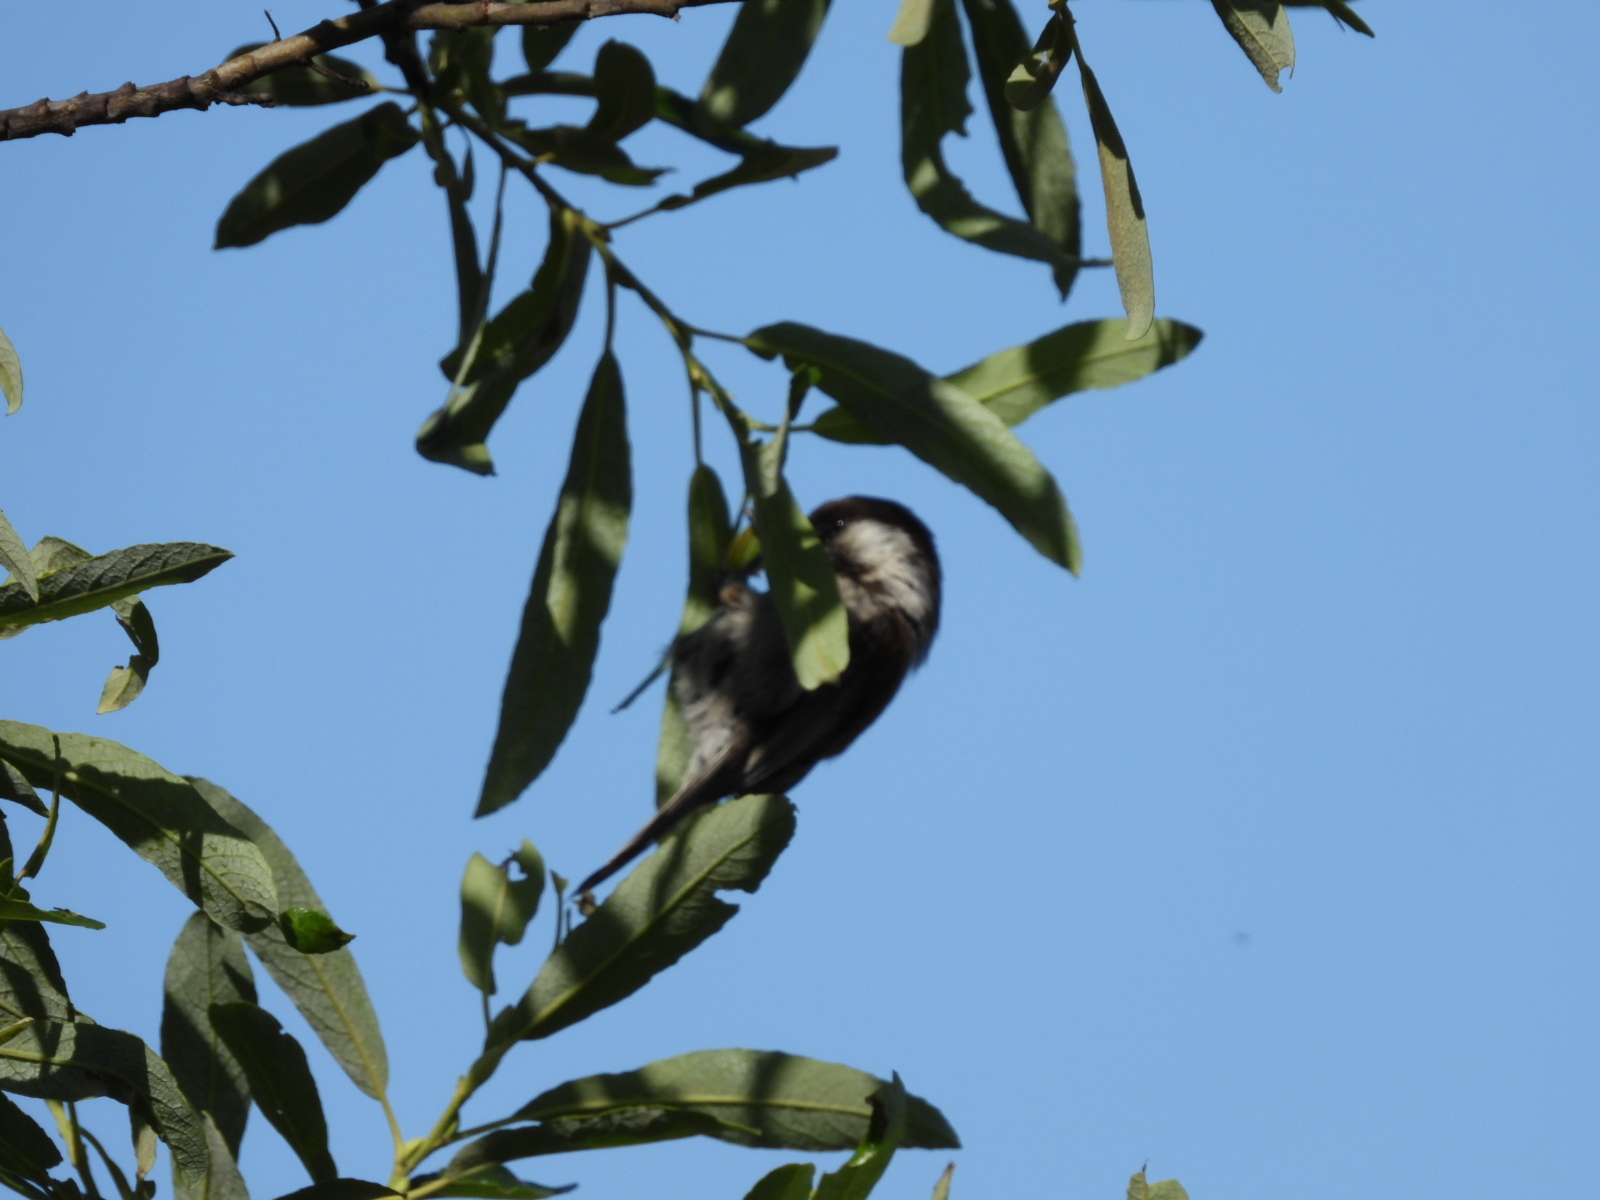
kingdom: Animalia
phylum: Chordata
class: Aves
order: Passeriformes
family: Paridae
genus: Poecile
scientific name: Poecile rufescens
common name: Chestnut-backed chickadee
